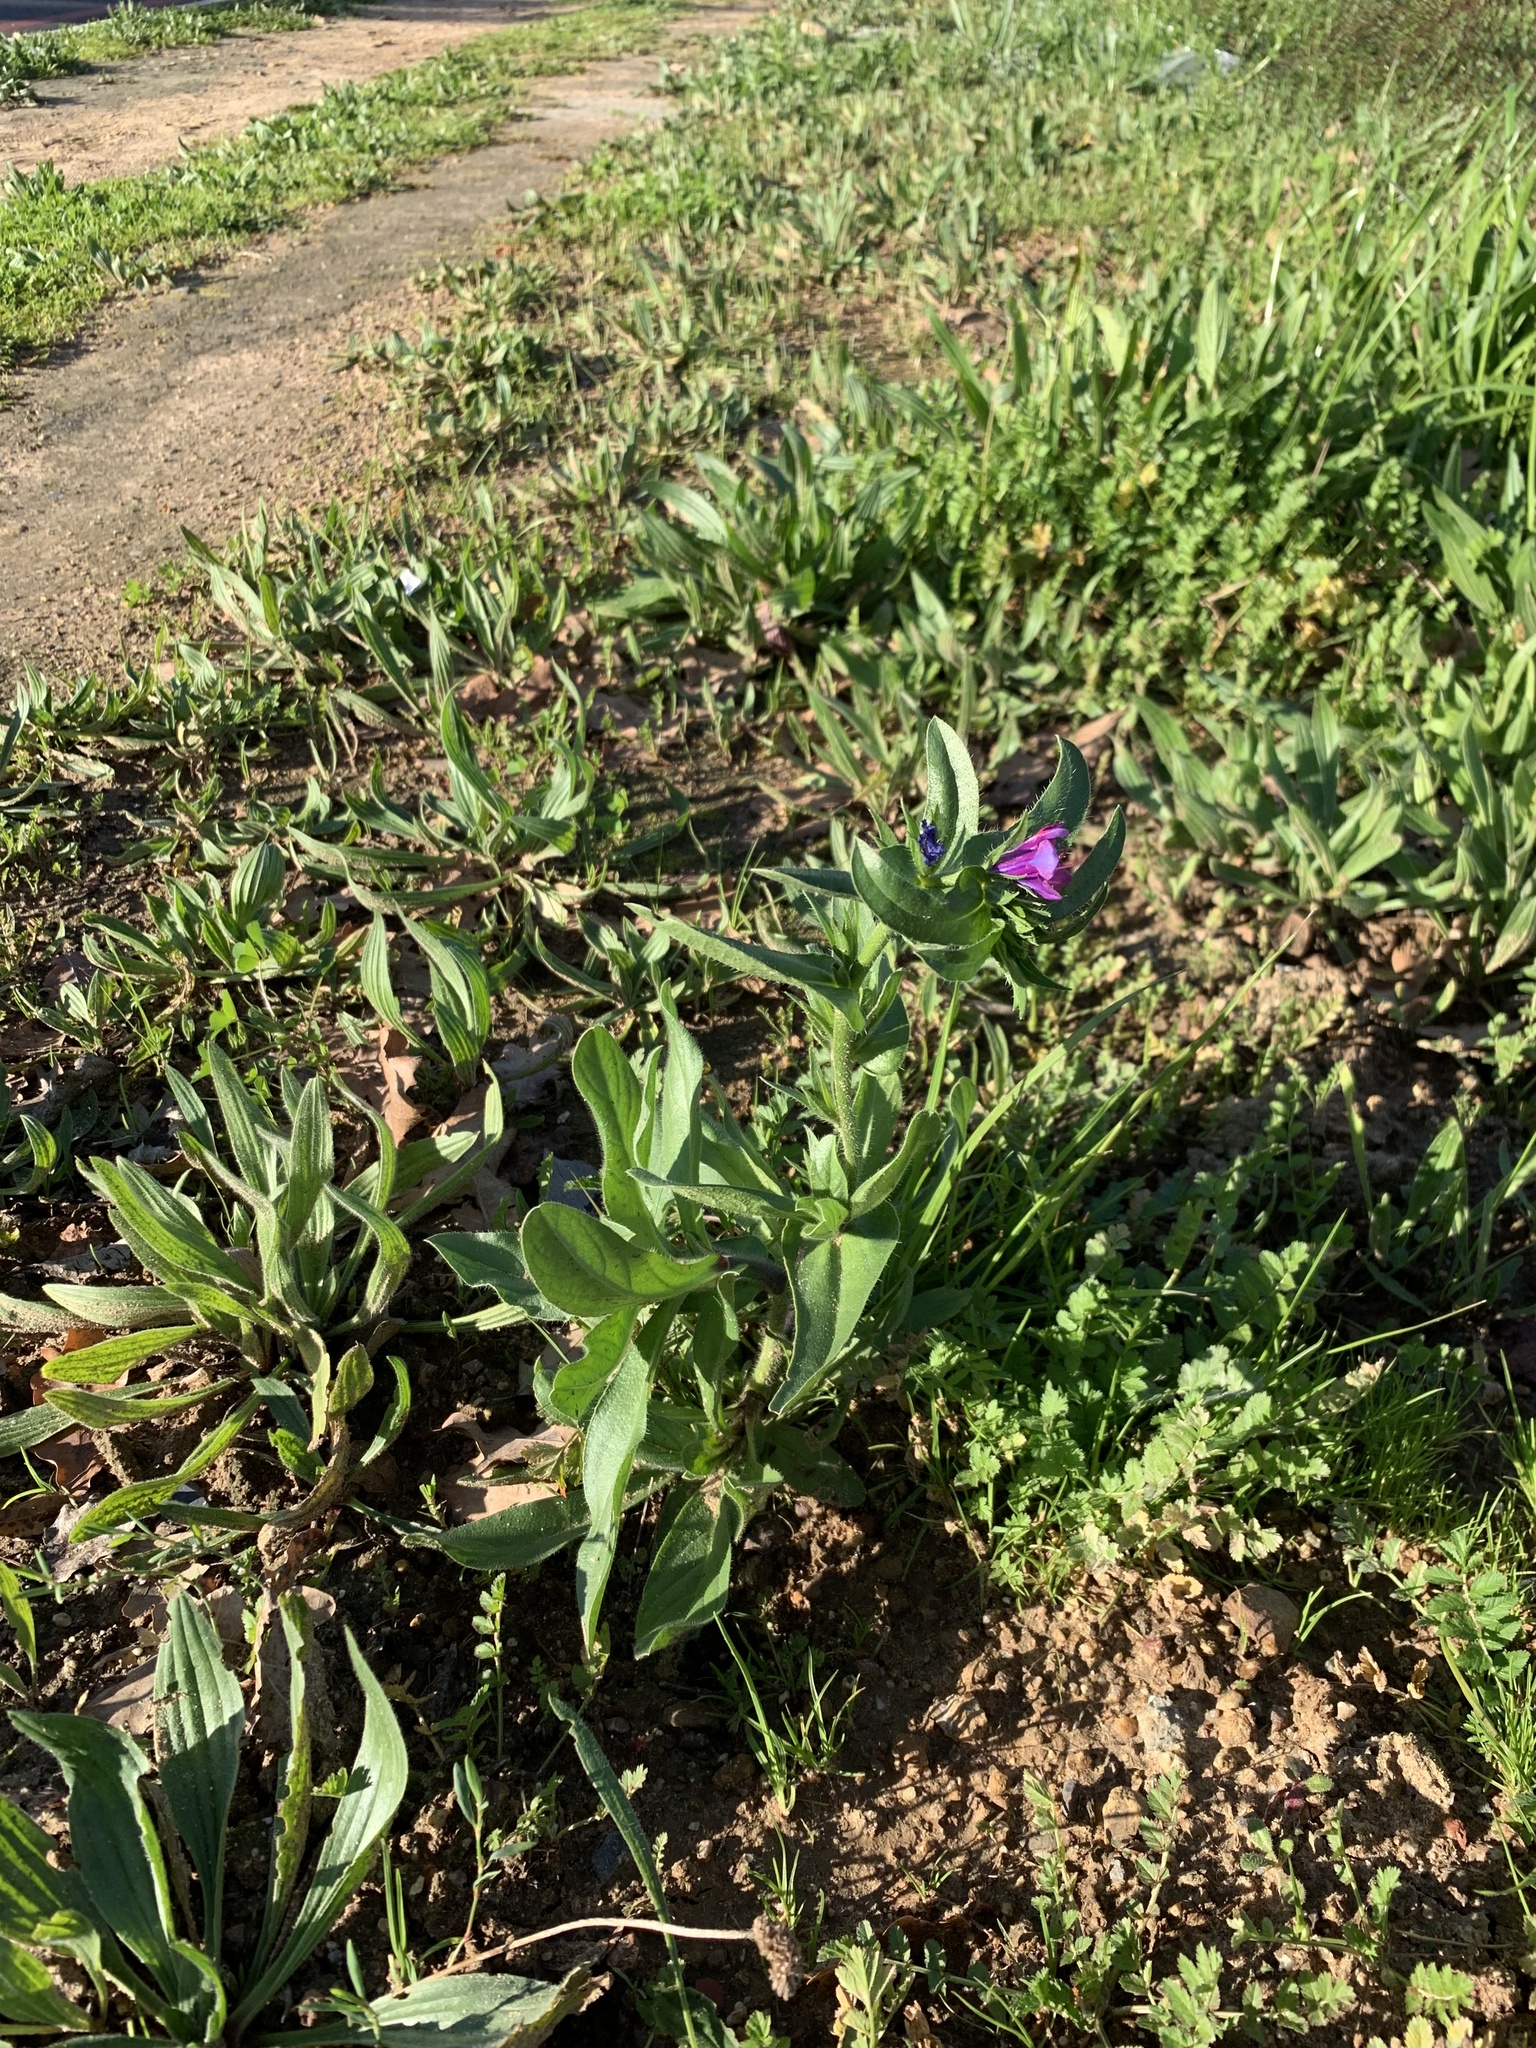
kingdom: Plantae
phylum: Tracheophyta
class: Magnoliopsida
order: Boraginales
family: Boraginaceae
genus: Echium
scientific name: Echium plantagineum
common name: Purple viper's-bugloss
